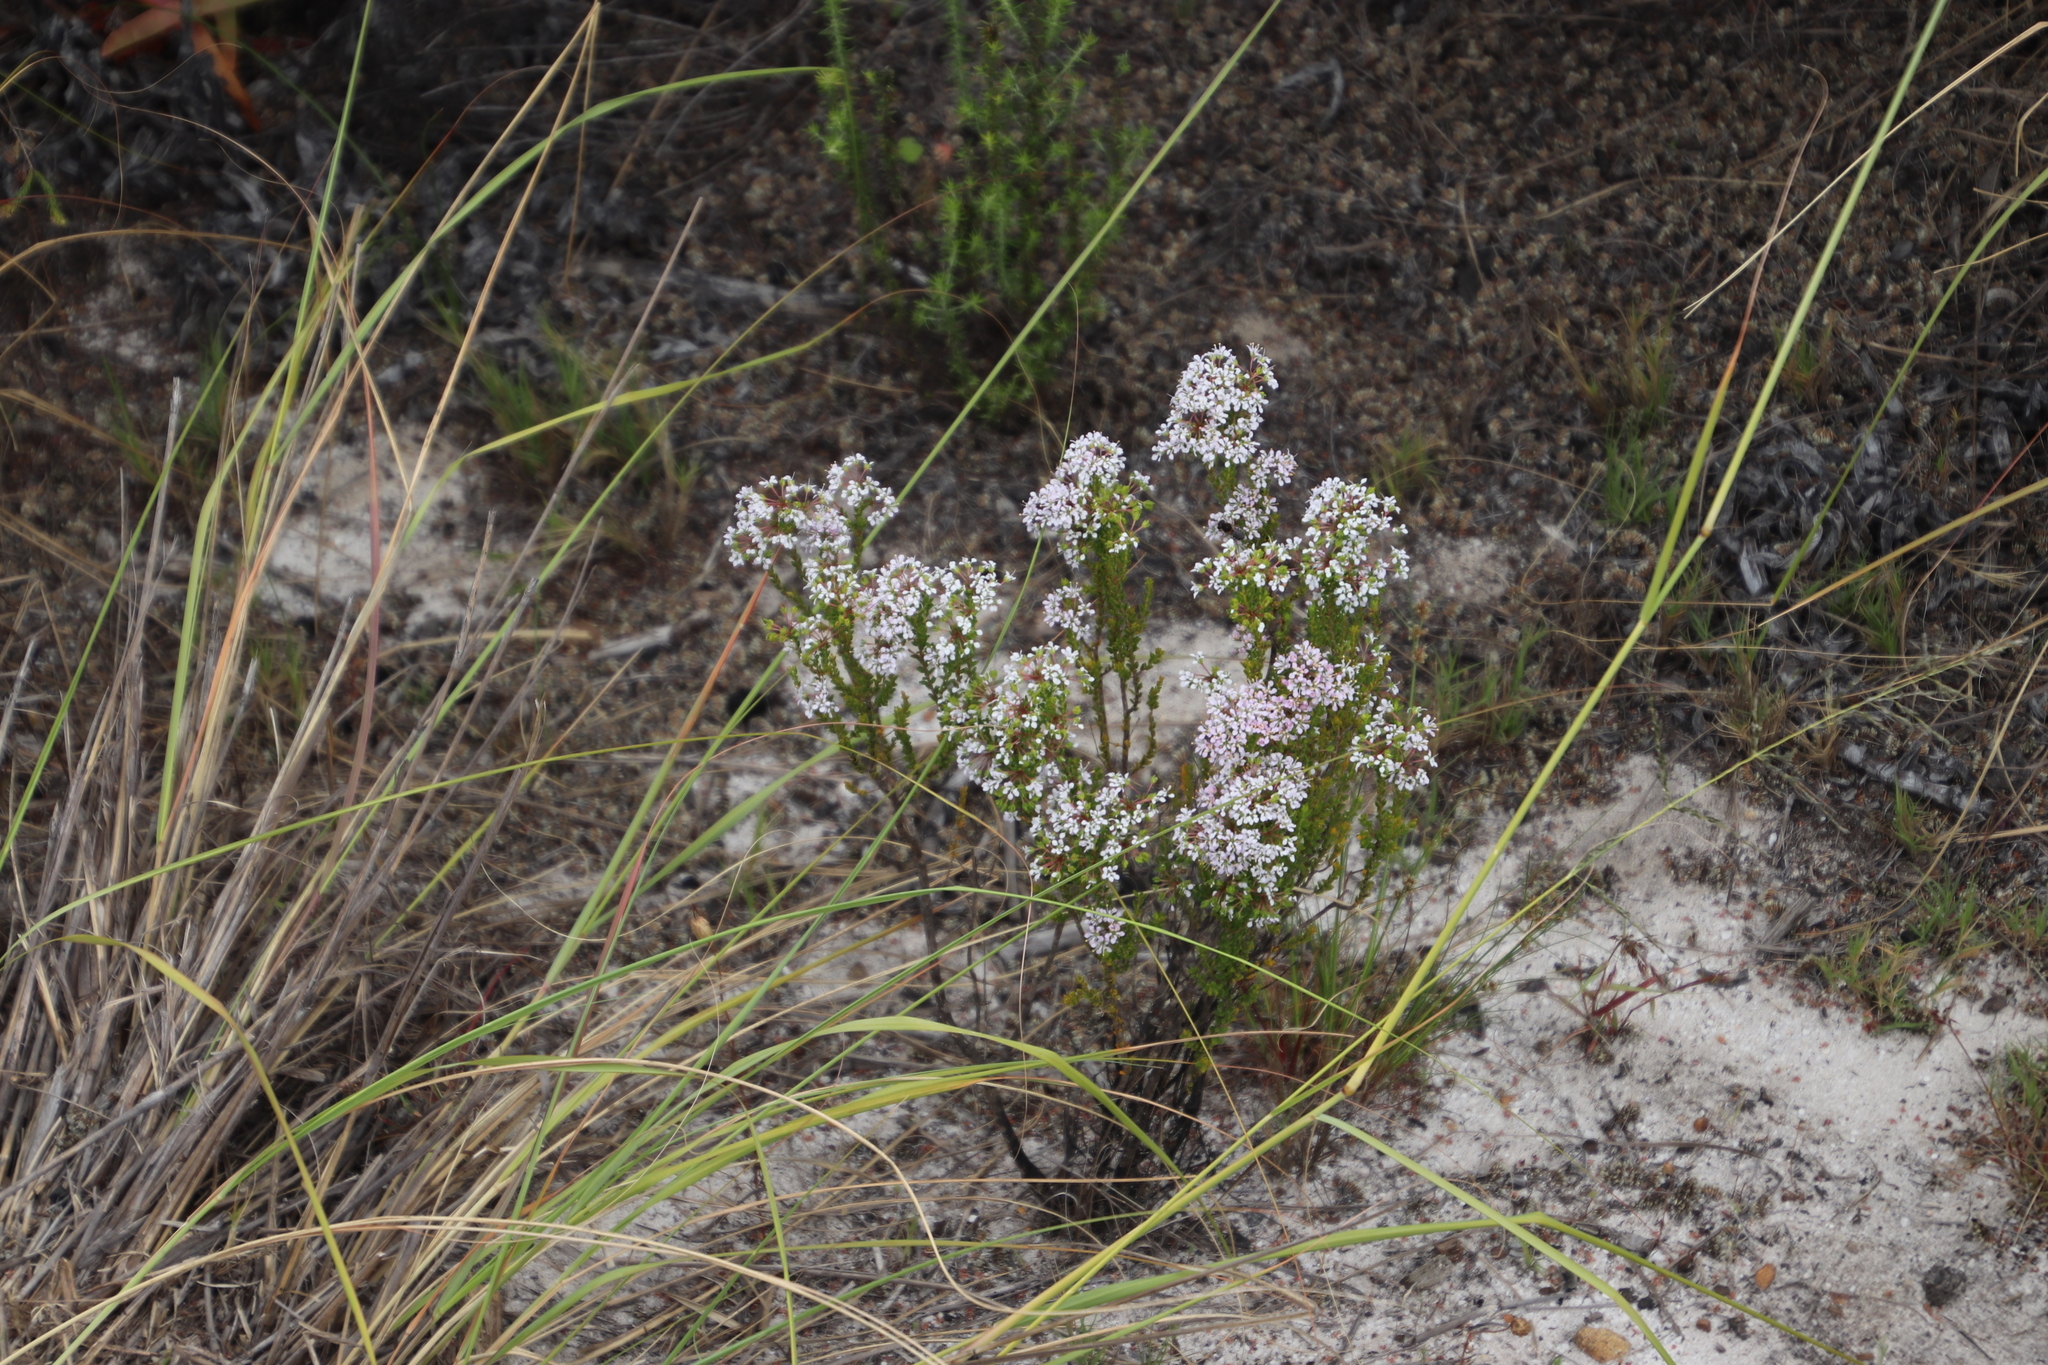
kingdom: Plantae
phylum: Tracheophyta
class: Magnoliopsida
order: Sapindales
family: Rutaceae
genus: Agathosma
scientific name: Agathosma glabrata
